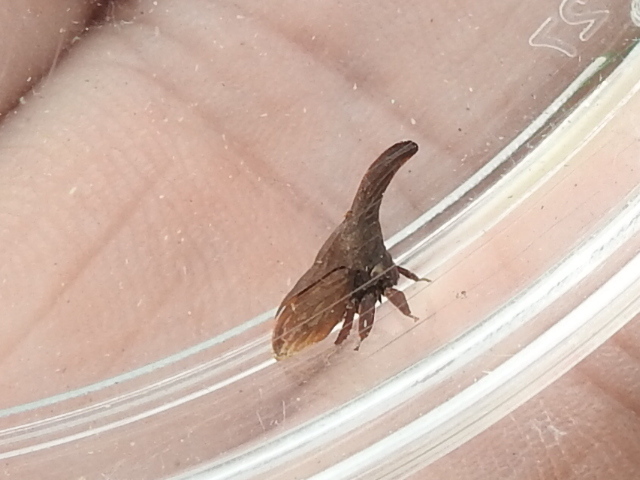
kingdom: Animalia
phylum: Arthropoda
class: Insecta
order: Hemiptera
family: Membracidae
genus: Enchenopa
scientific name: Enchenopa latipes
